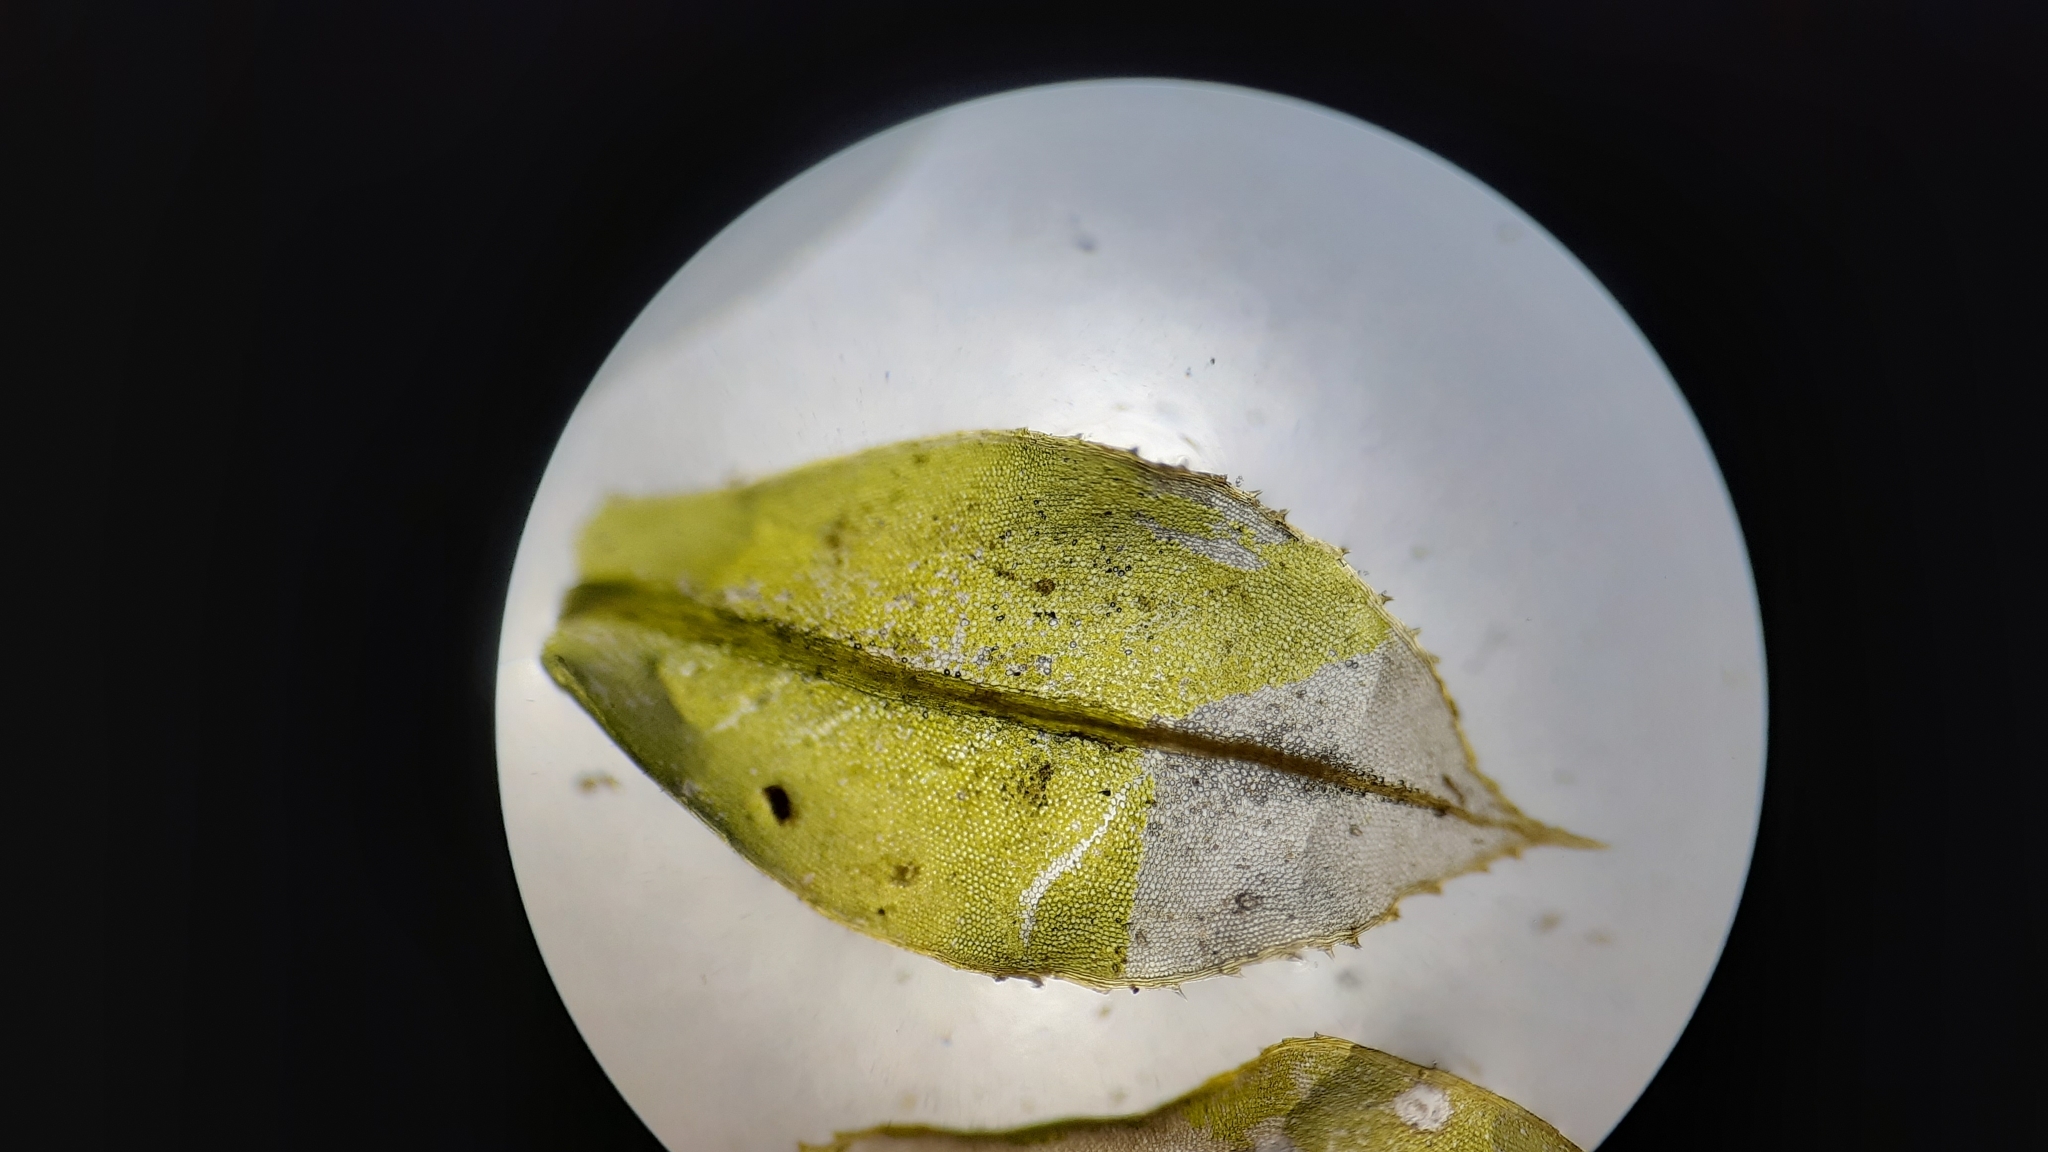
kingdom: Plantae
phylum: Bryophyta
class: Bryopsida
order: Bryales
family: Mniaceae
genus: Plagiomnium
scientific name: Plagiomnium cuspidatum
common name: Woodsy leafy moss
